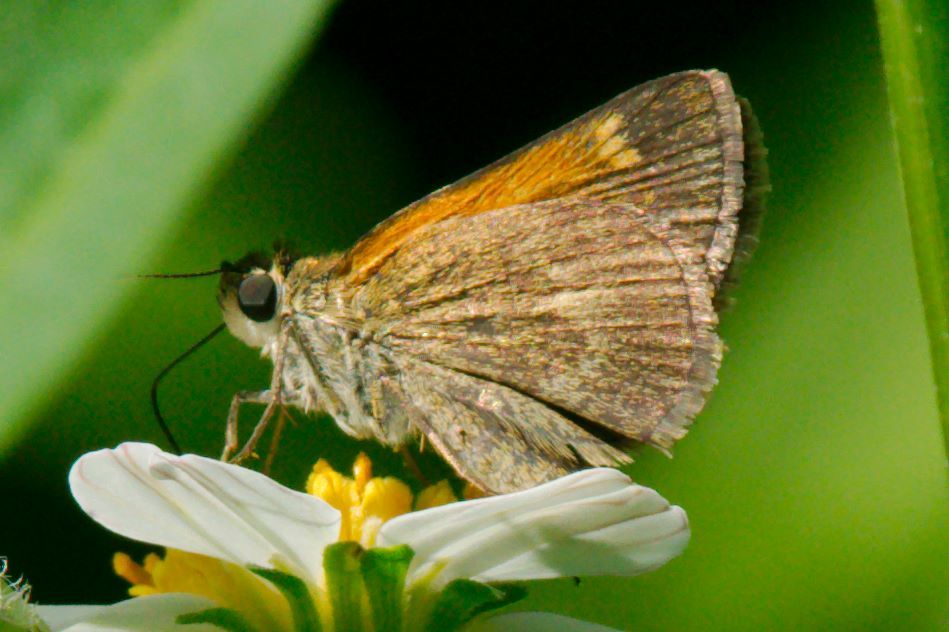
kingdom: Animalia
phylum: Arthropoda
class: Insecta
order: Lepidoptera
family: Hesperiidae
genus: Polites
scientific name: Polites baracoa
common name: Baracoa skipper
